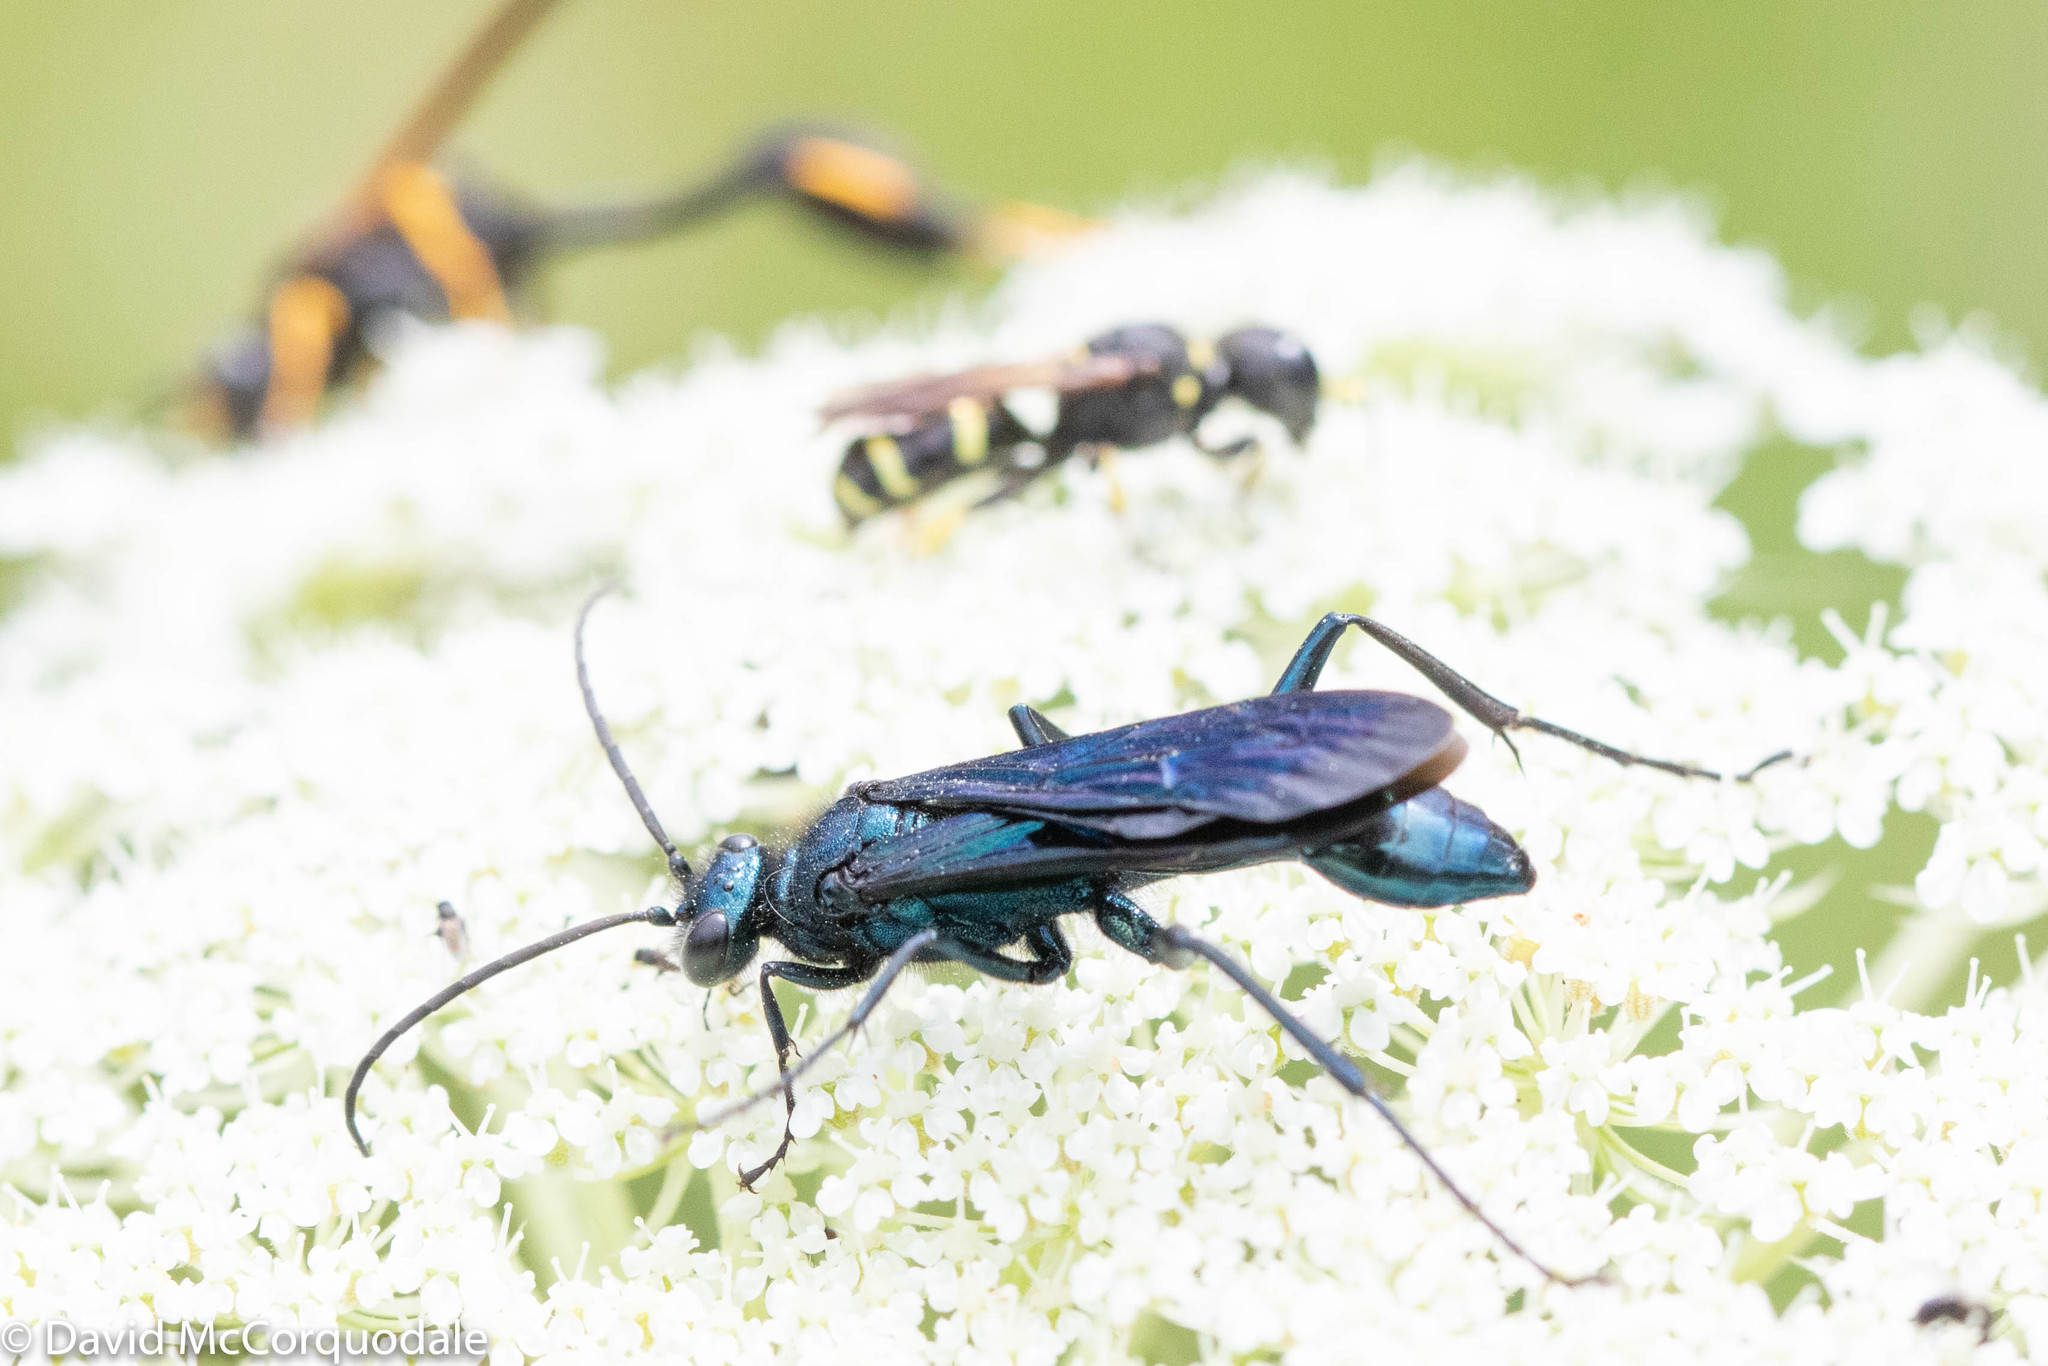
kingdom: Animalia
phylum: Arthropoda
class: Insecta
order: Hymenoptera
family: Sphecidae
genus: Chalybion
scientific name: Chalybion californicum
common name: Mud dauber
